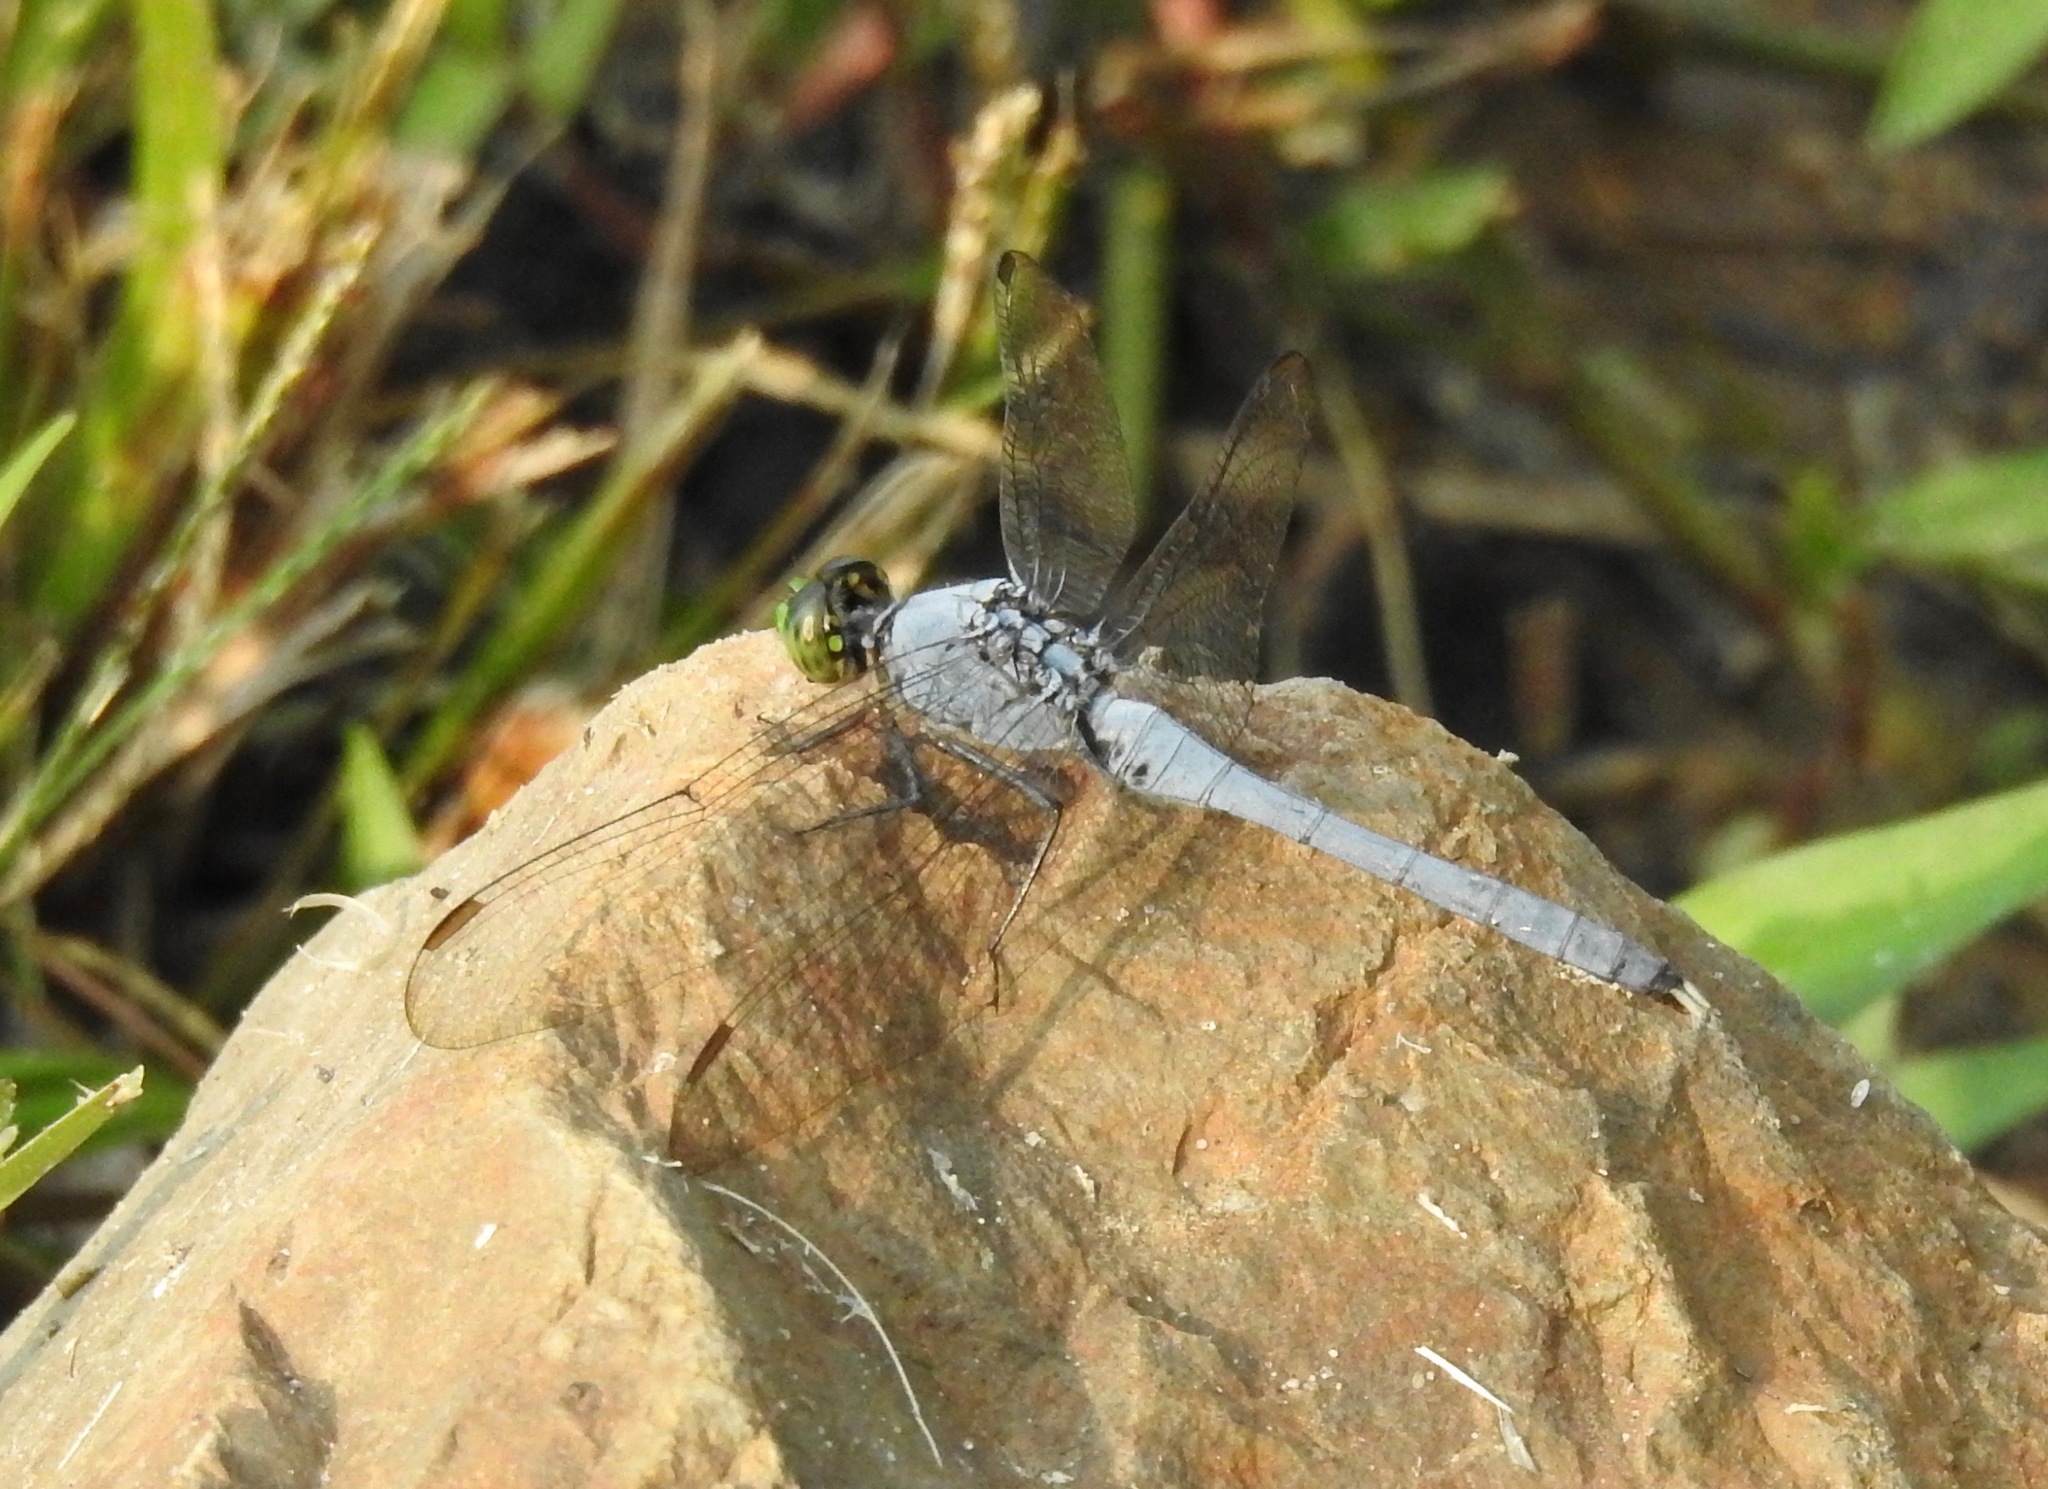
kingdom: Animalia
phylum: Arthropoda
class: Insecta
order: Odonata
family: Libellulidae
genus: Erythemis
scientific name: Erythemis simplicicollis
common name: Eastern pondhawk
